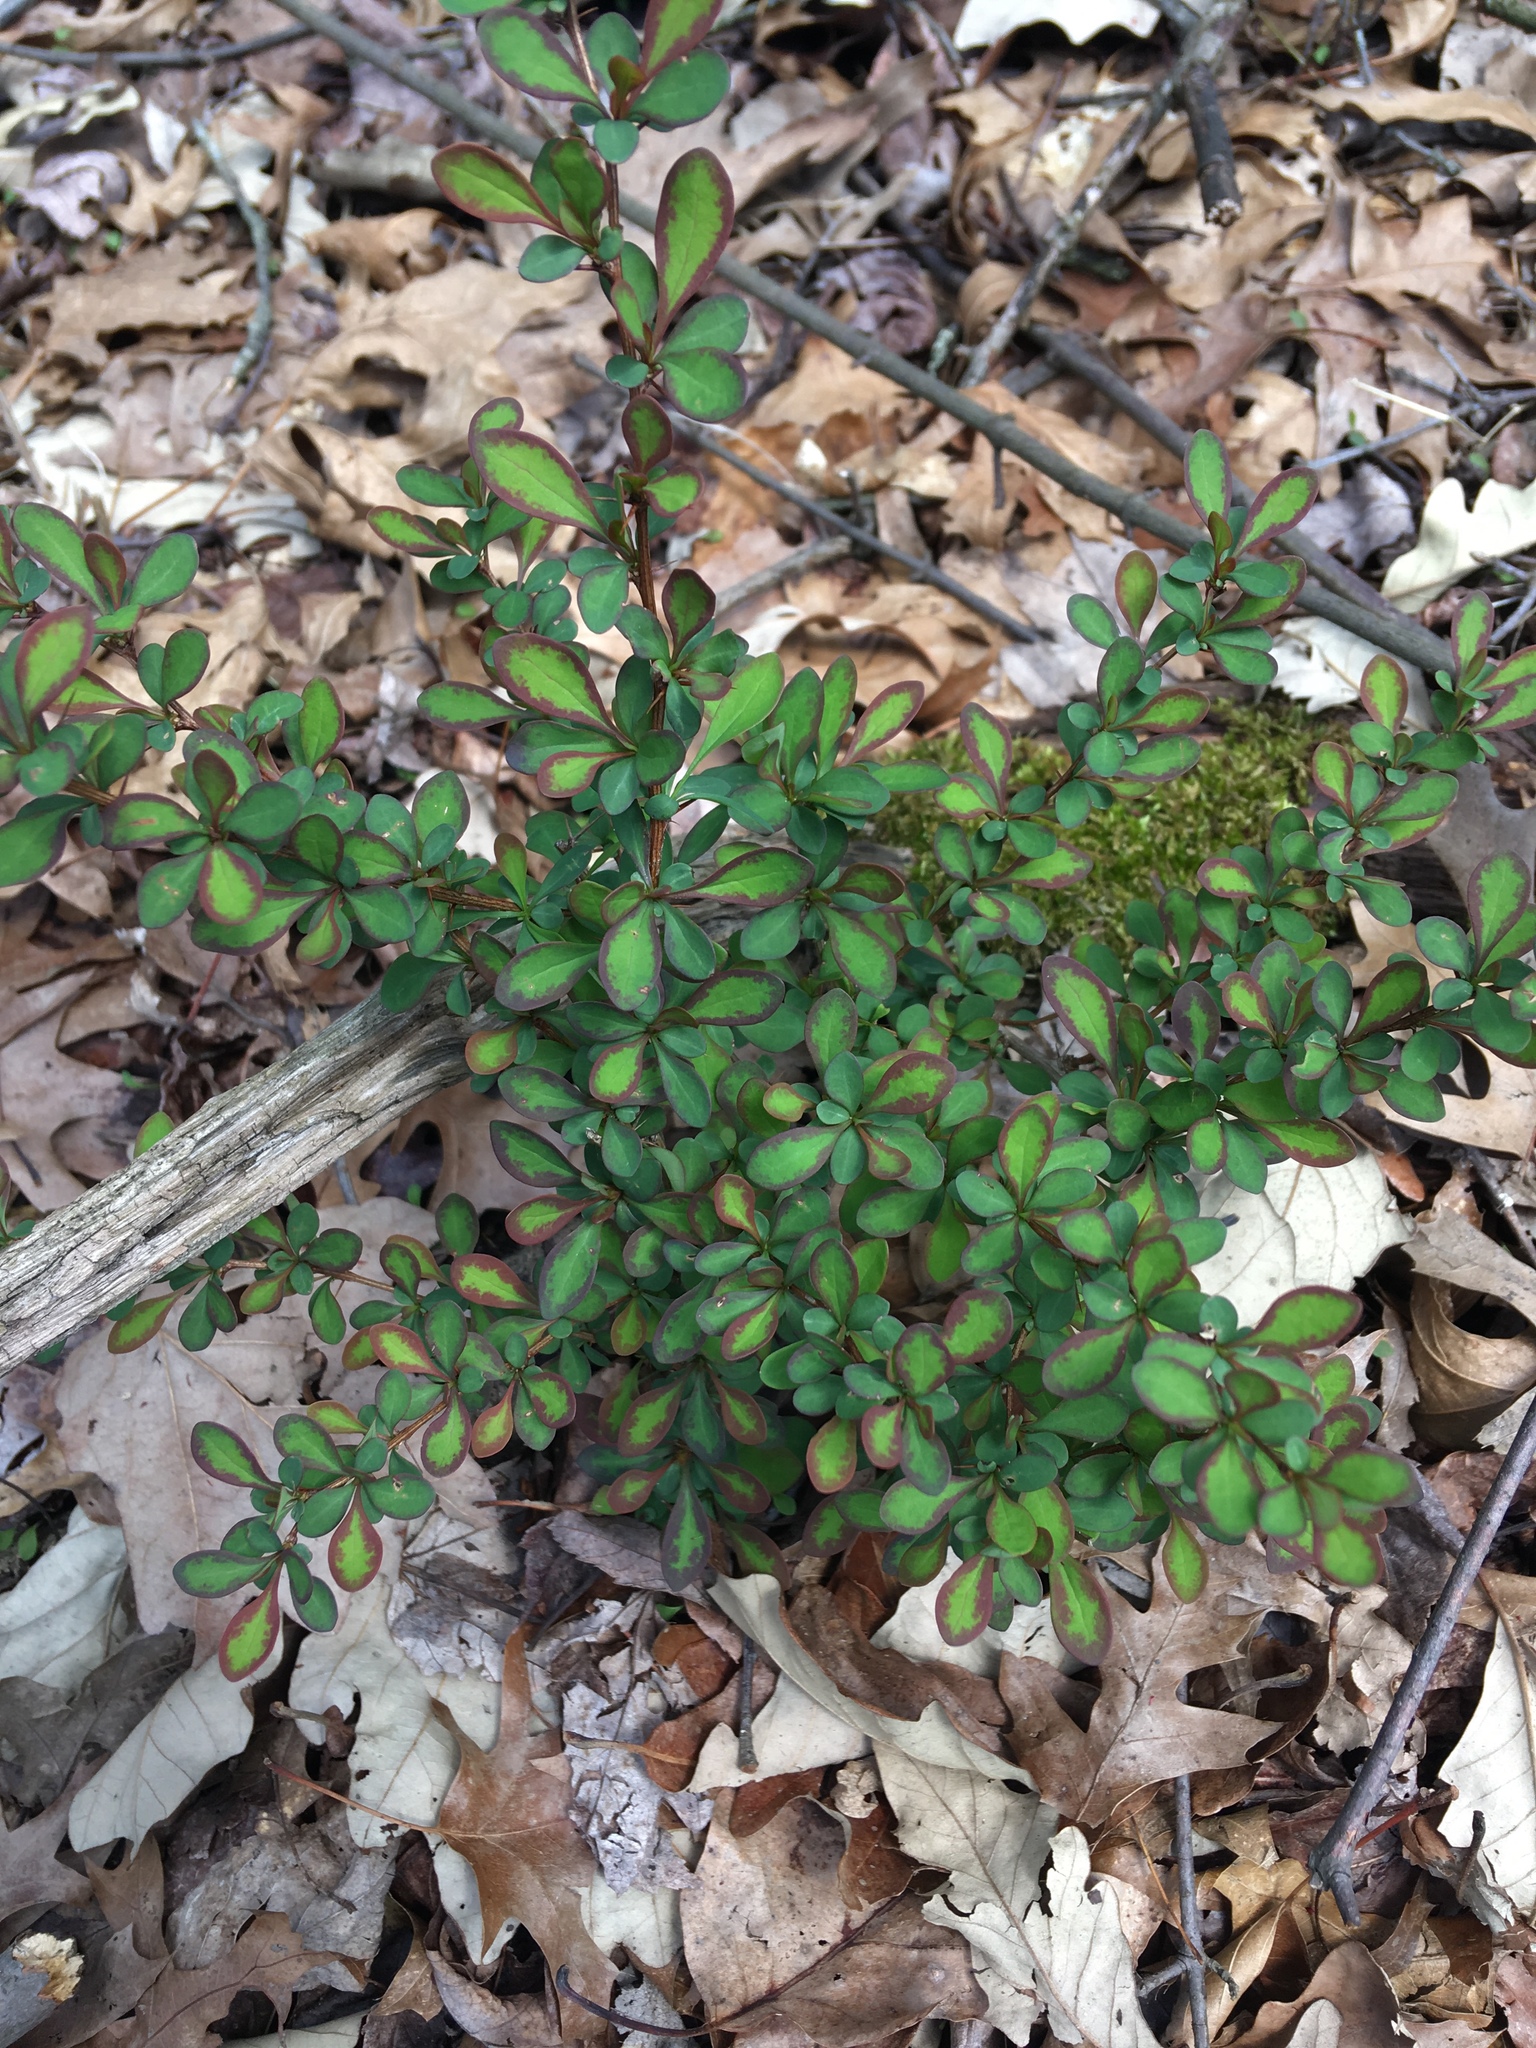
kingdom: Plantae
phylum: Tracheophyta
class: Magnoliopsida
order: Ranunculales
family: Berberidaceae
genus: Berberis
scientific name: Berberis thunbergii
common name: Japanese barberry
